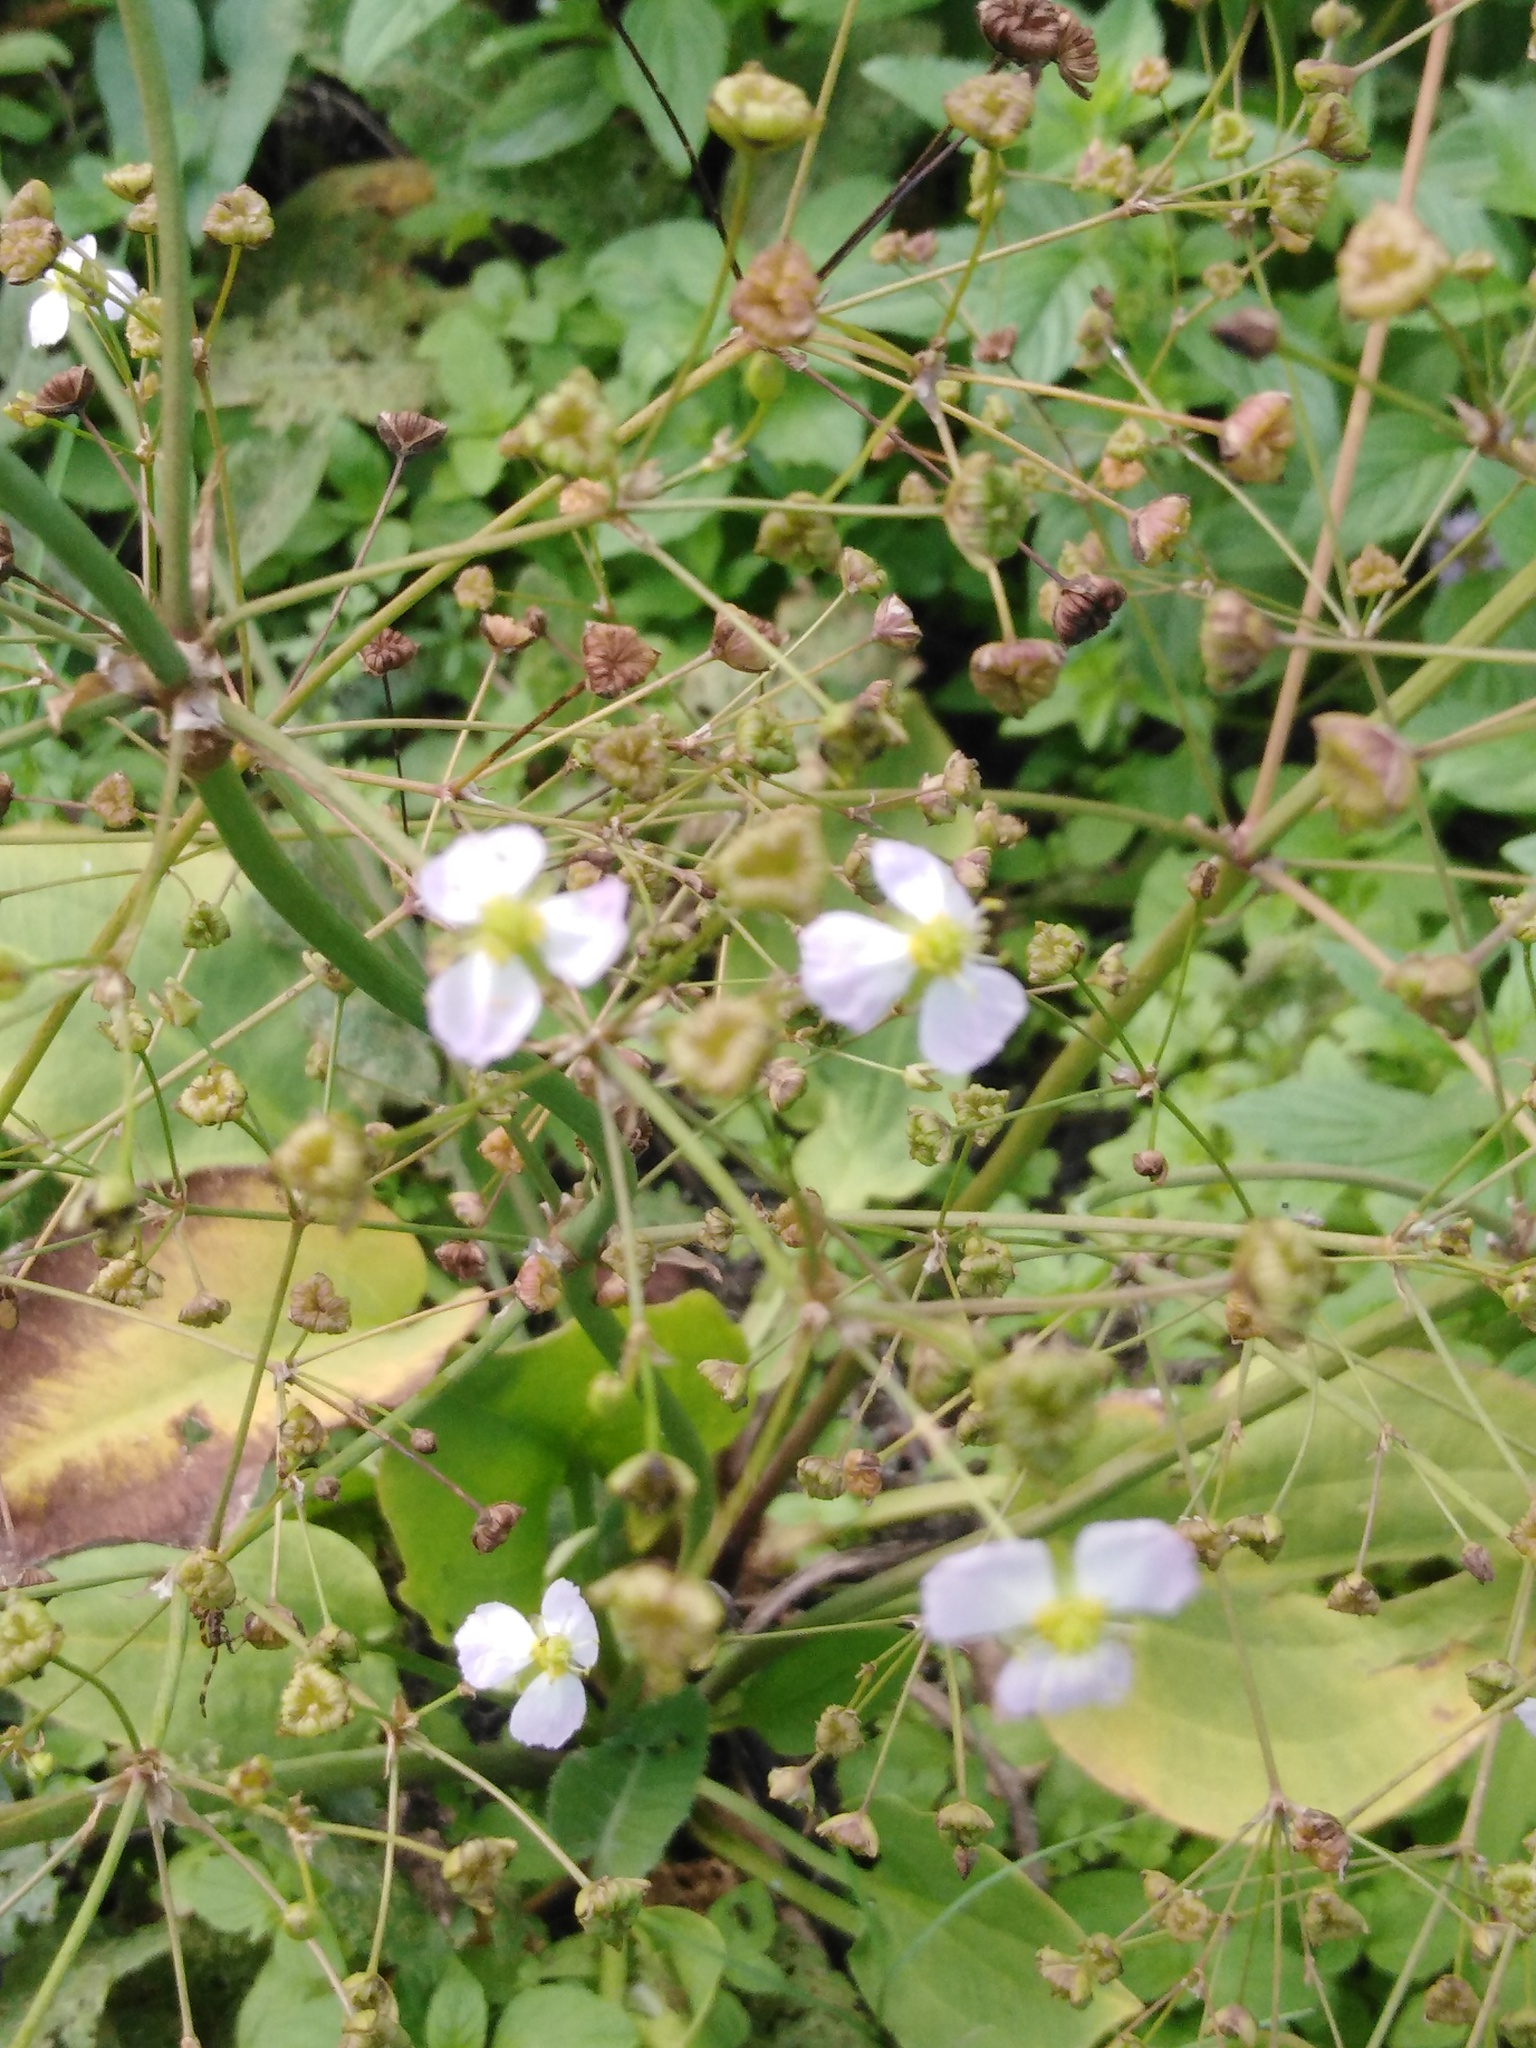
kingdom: Plantae
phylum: Tracheophyta
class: Liliopsida
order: Alismatales
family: Alismataceae
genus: Alisma
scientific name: Alisma plantago-aquatica
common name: Water-plantain
